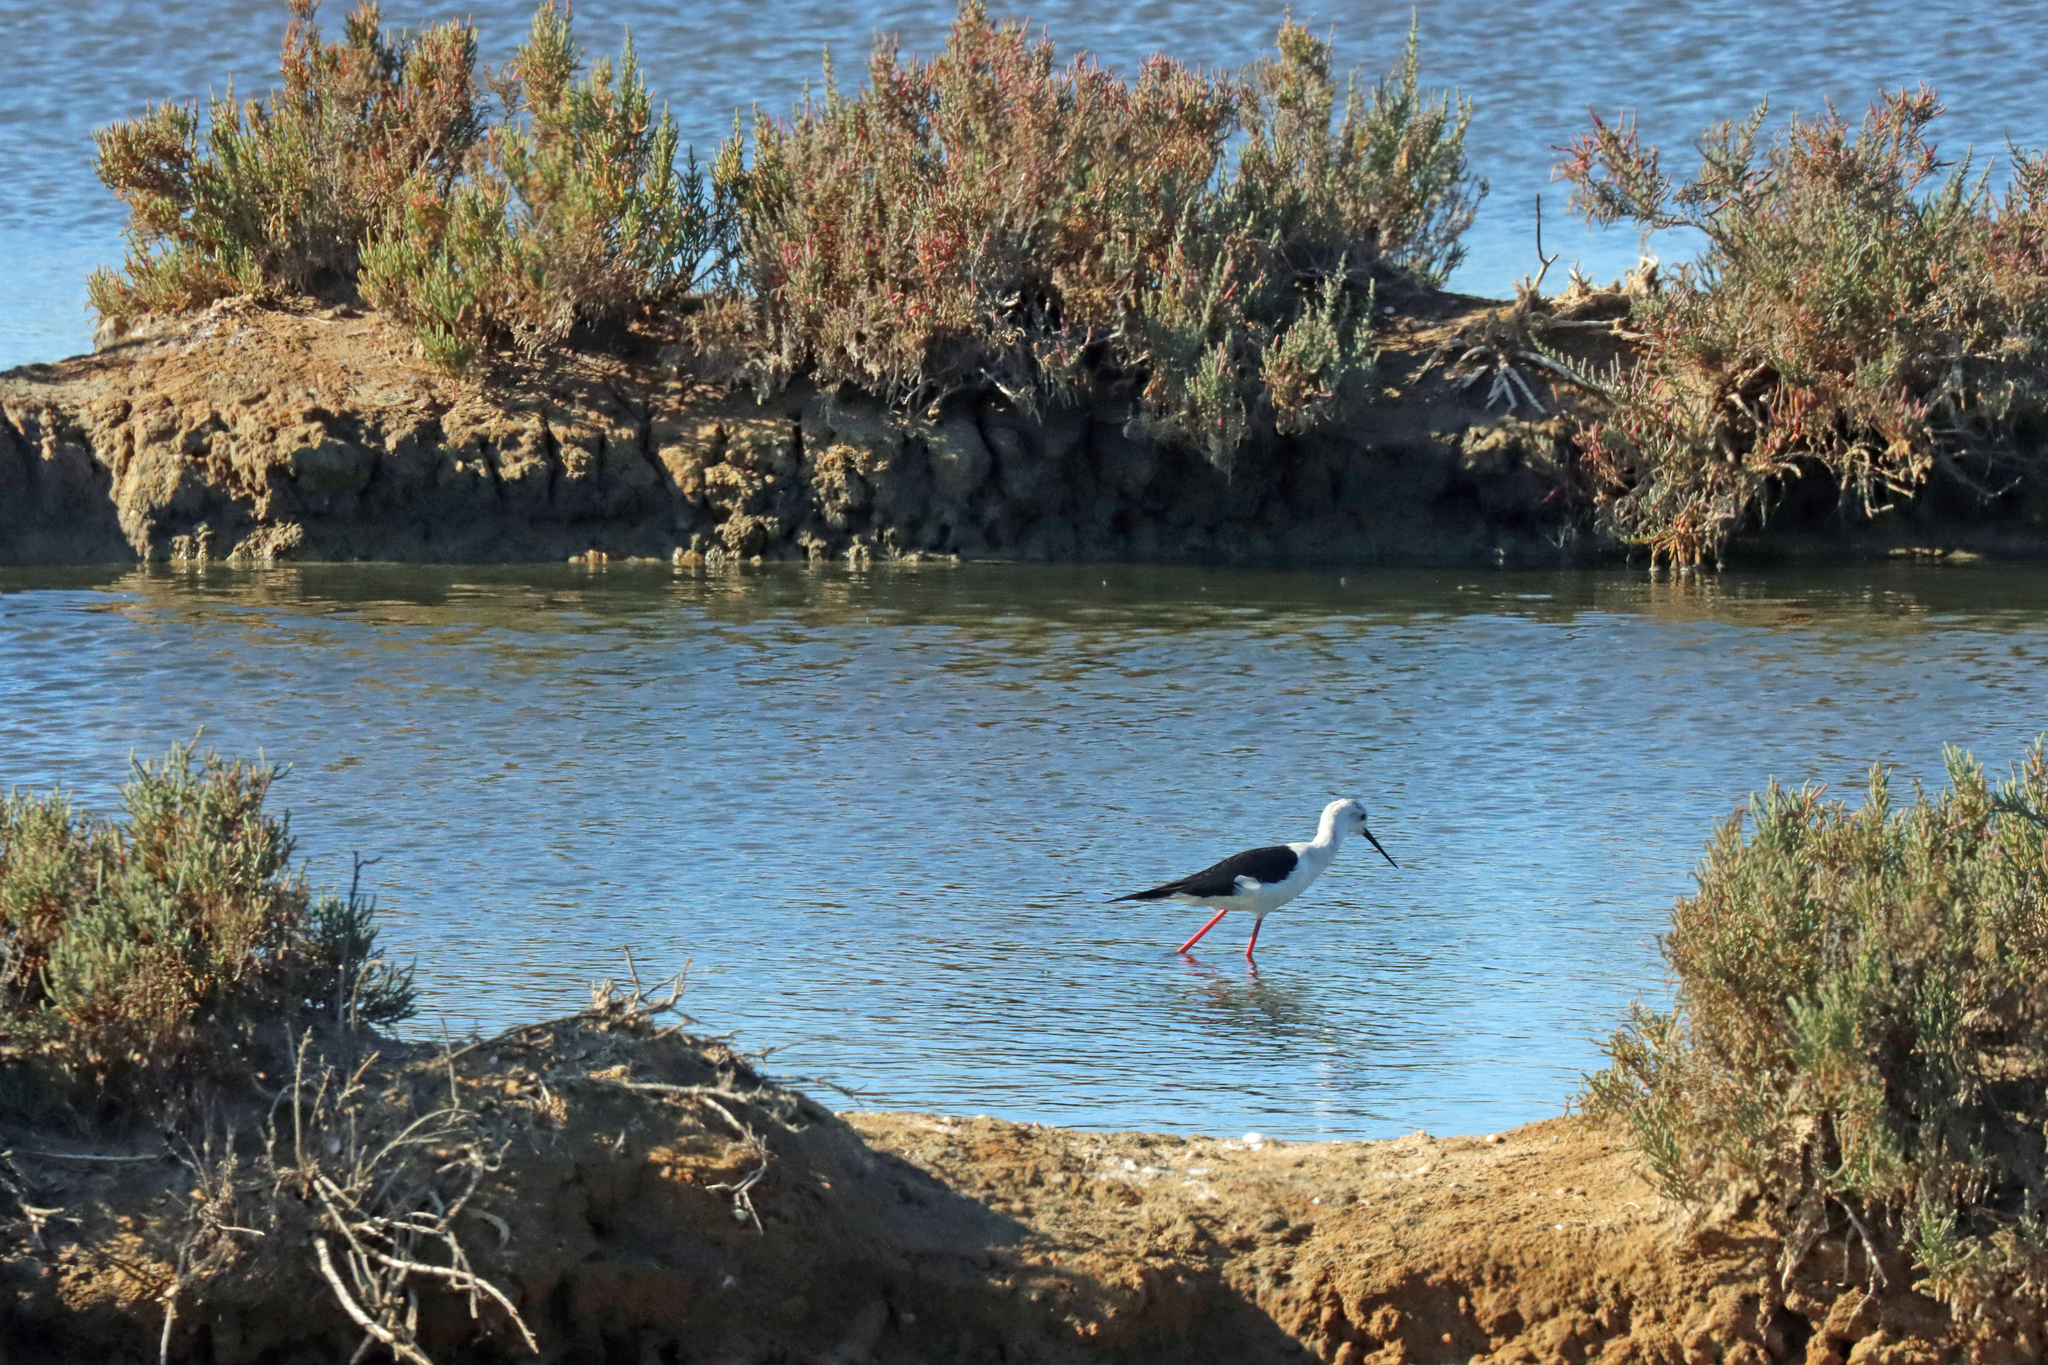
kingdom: Animalia
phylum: Chordata
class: Aves
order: Charadriiformes
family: Recurvirostridae
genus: Himantopus
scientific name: Himantopus himantopus
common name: Black-winged stilt
